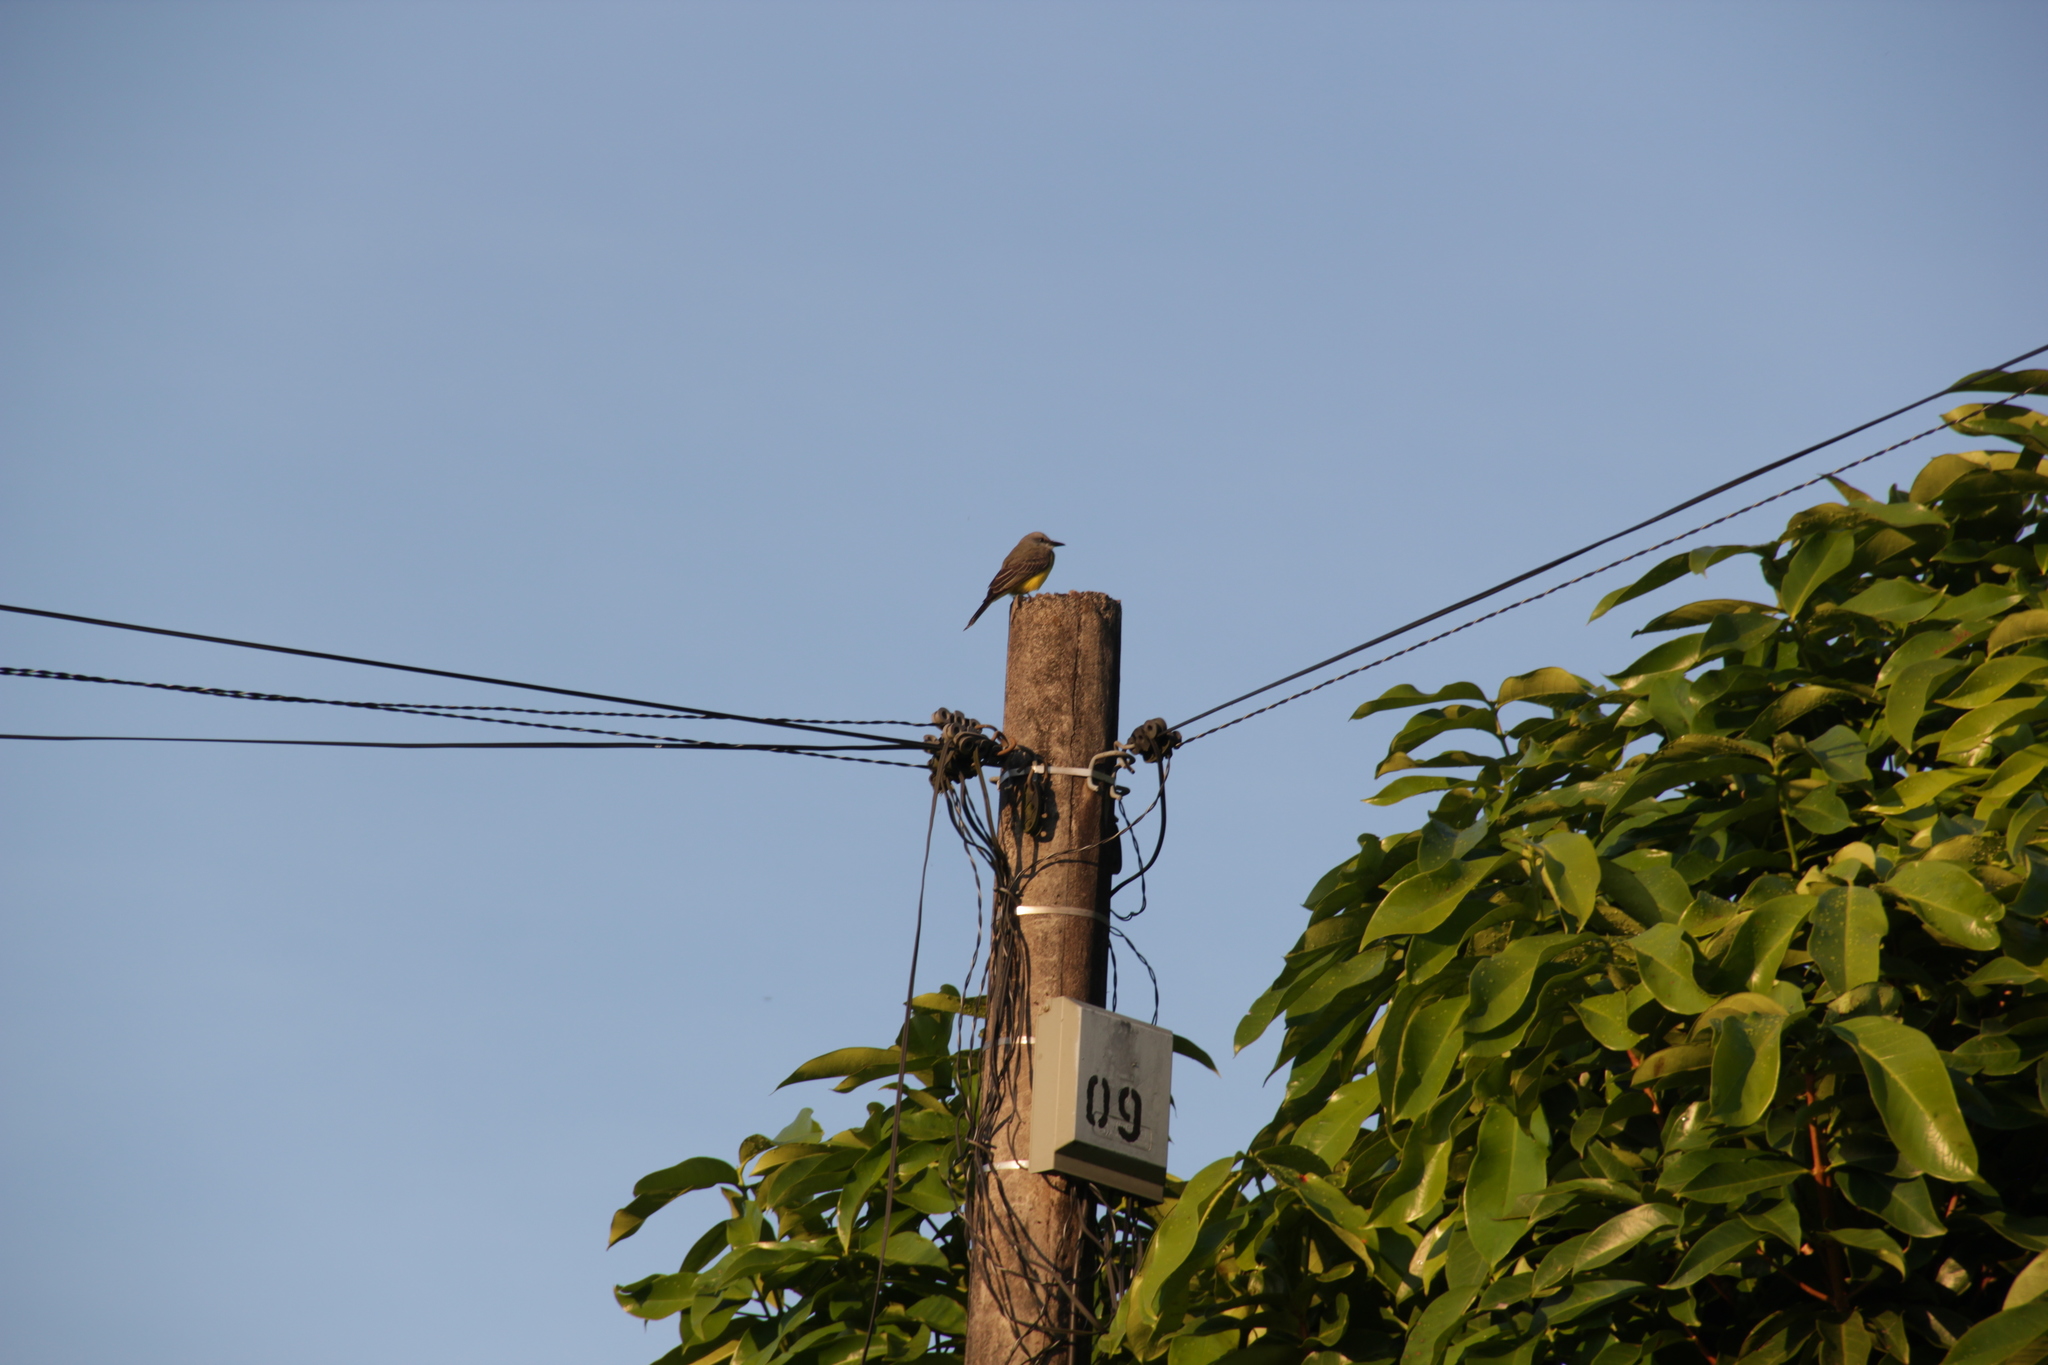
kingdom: Animalia
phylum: Chordata
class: Aves
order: Passeriformes
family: Tyrannidae
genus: Tyrannus
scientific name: Tyrannus melancholicus
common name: Tropical kingbird
